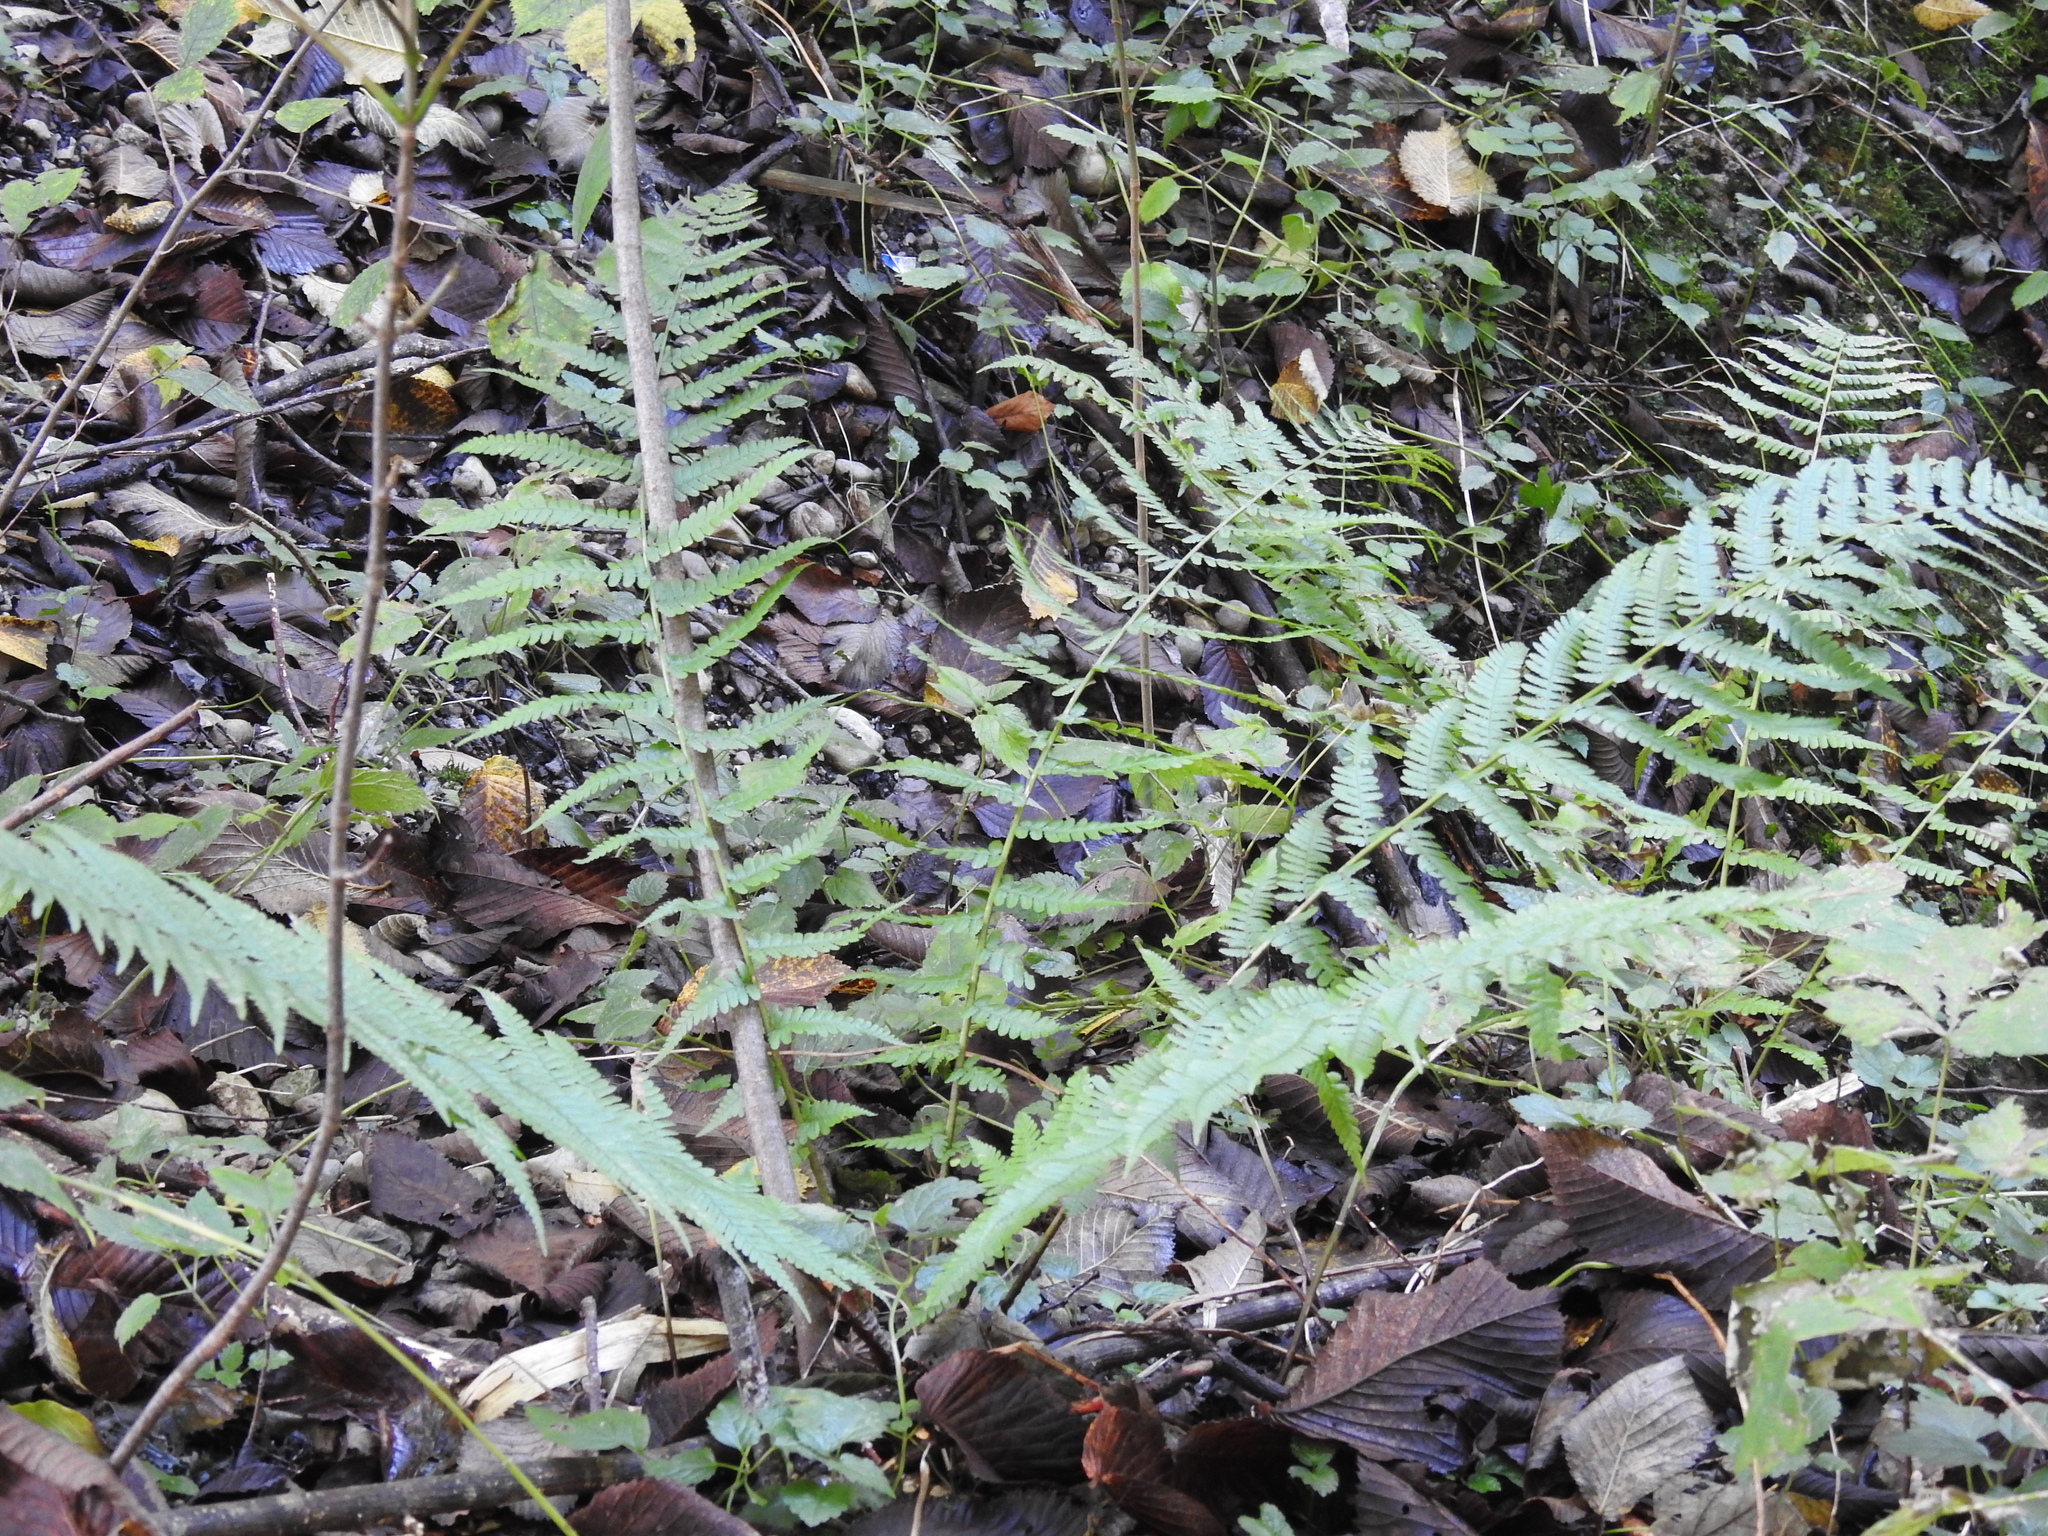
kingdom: Plantae
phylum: Tracheophyta
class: Polypodiopsida
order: Polypodiales
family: Dryopteridaceae
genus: Dryopteris
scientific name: Dryopteris filix-mas
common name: Male fern
